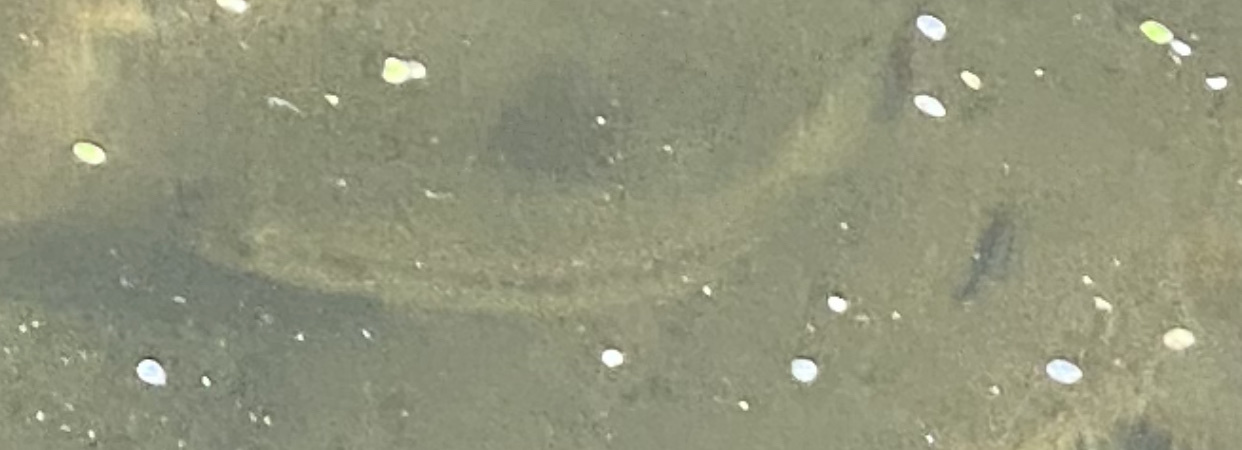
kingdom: Animalia
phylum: Chordata
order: Perciformes
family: Centrarchidae
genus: Micropterus
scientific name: Micropterus
